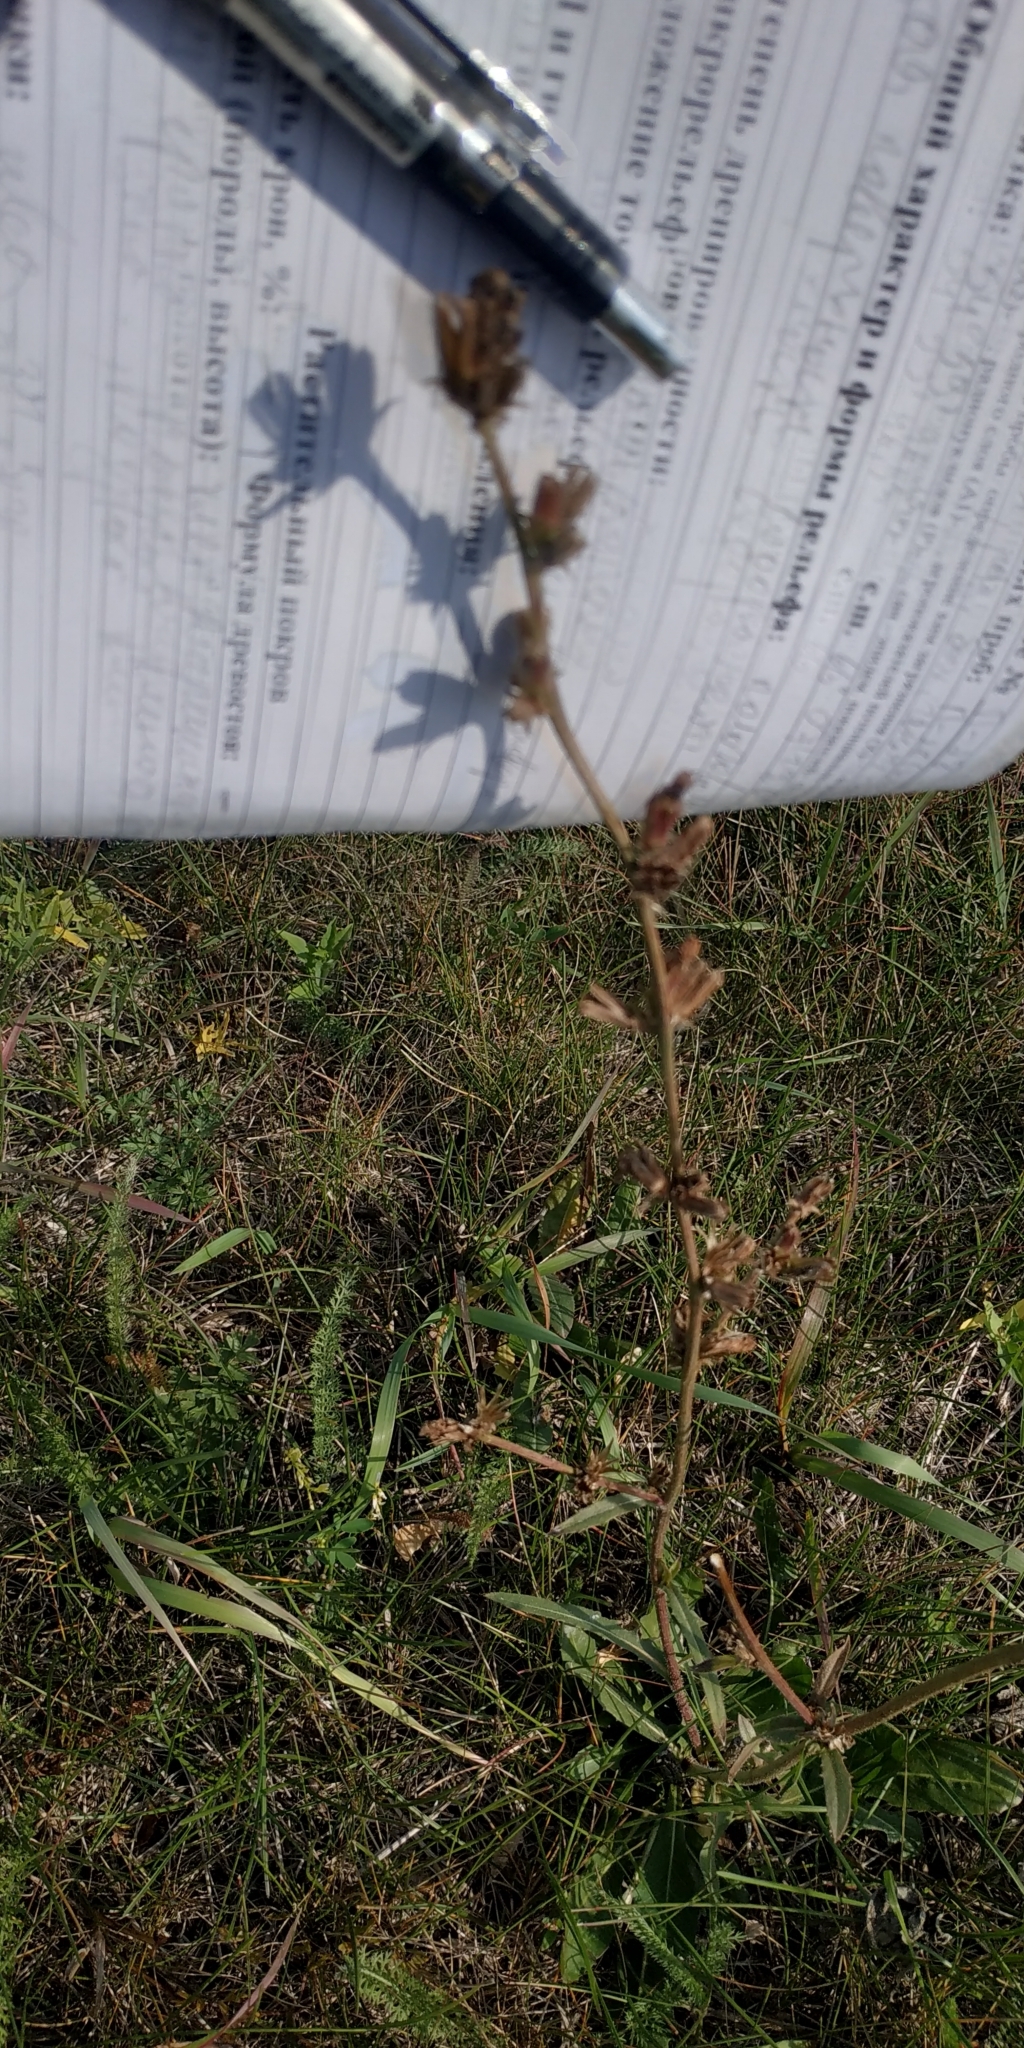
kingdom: Plantae
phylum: Tracheophyta
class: Magnoliopsida
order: Asterales
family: Asteraceae
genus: Cichorium
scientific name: Cichorium intybus
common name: Chicory
